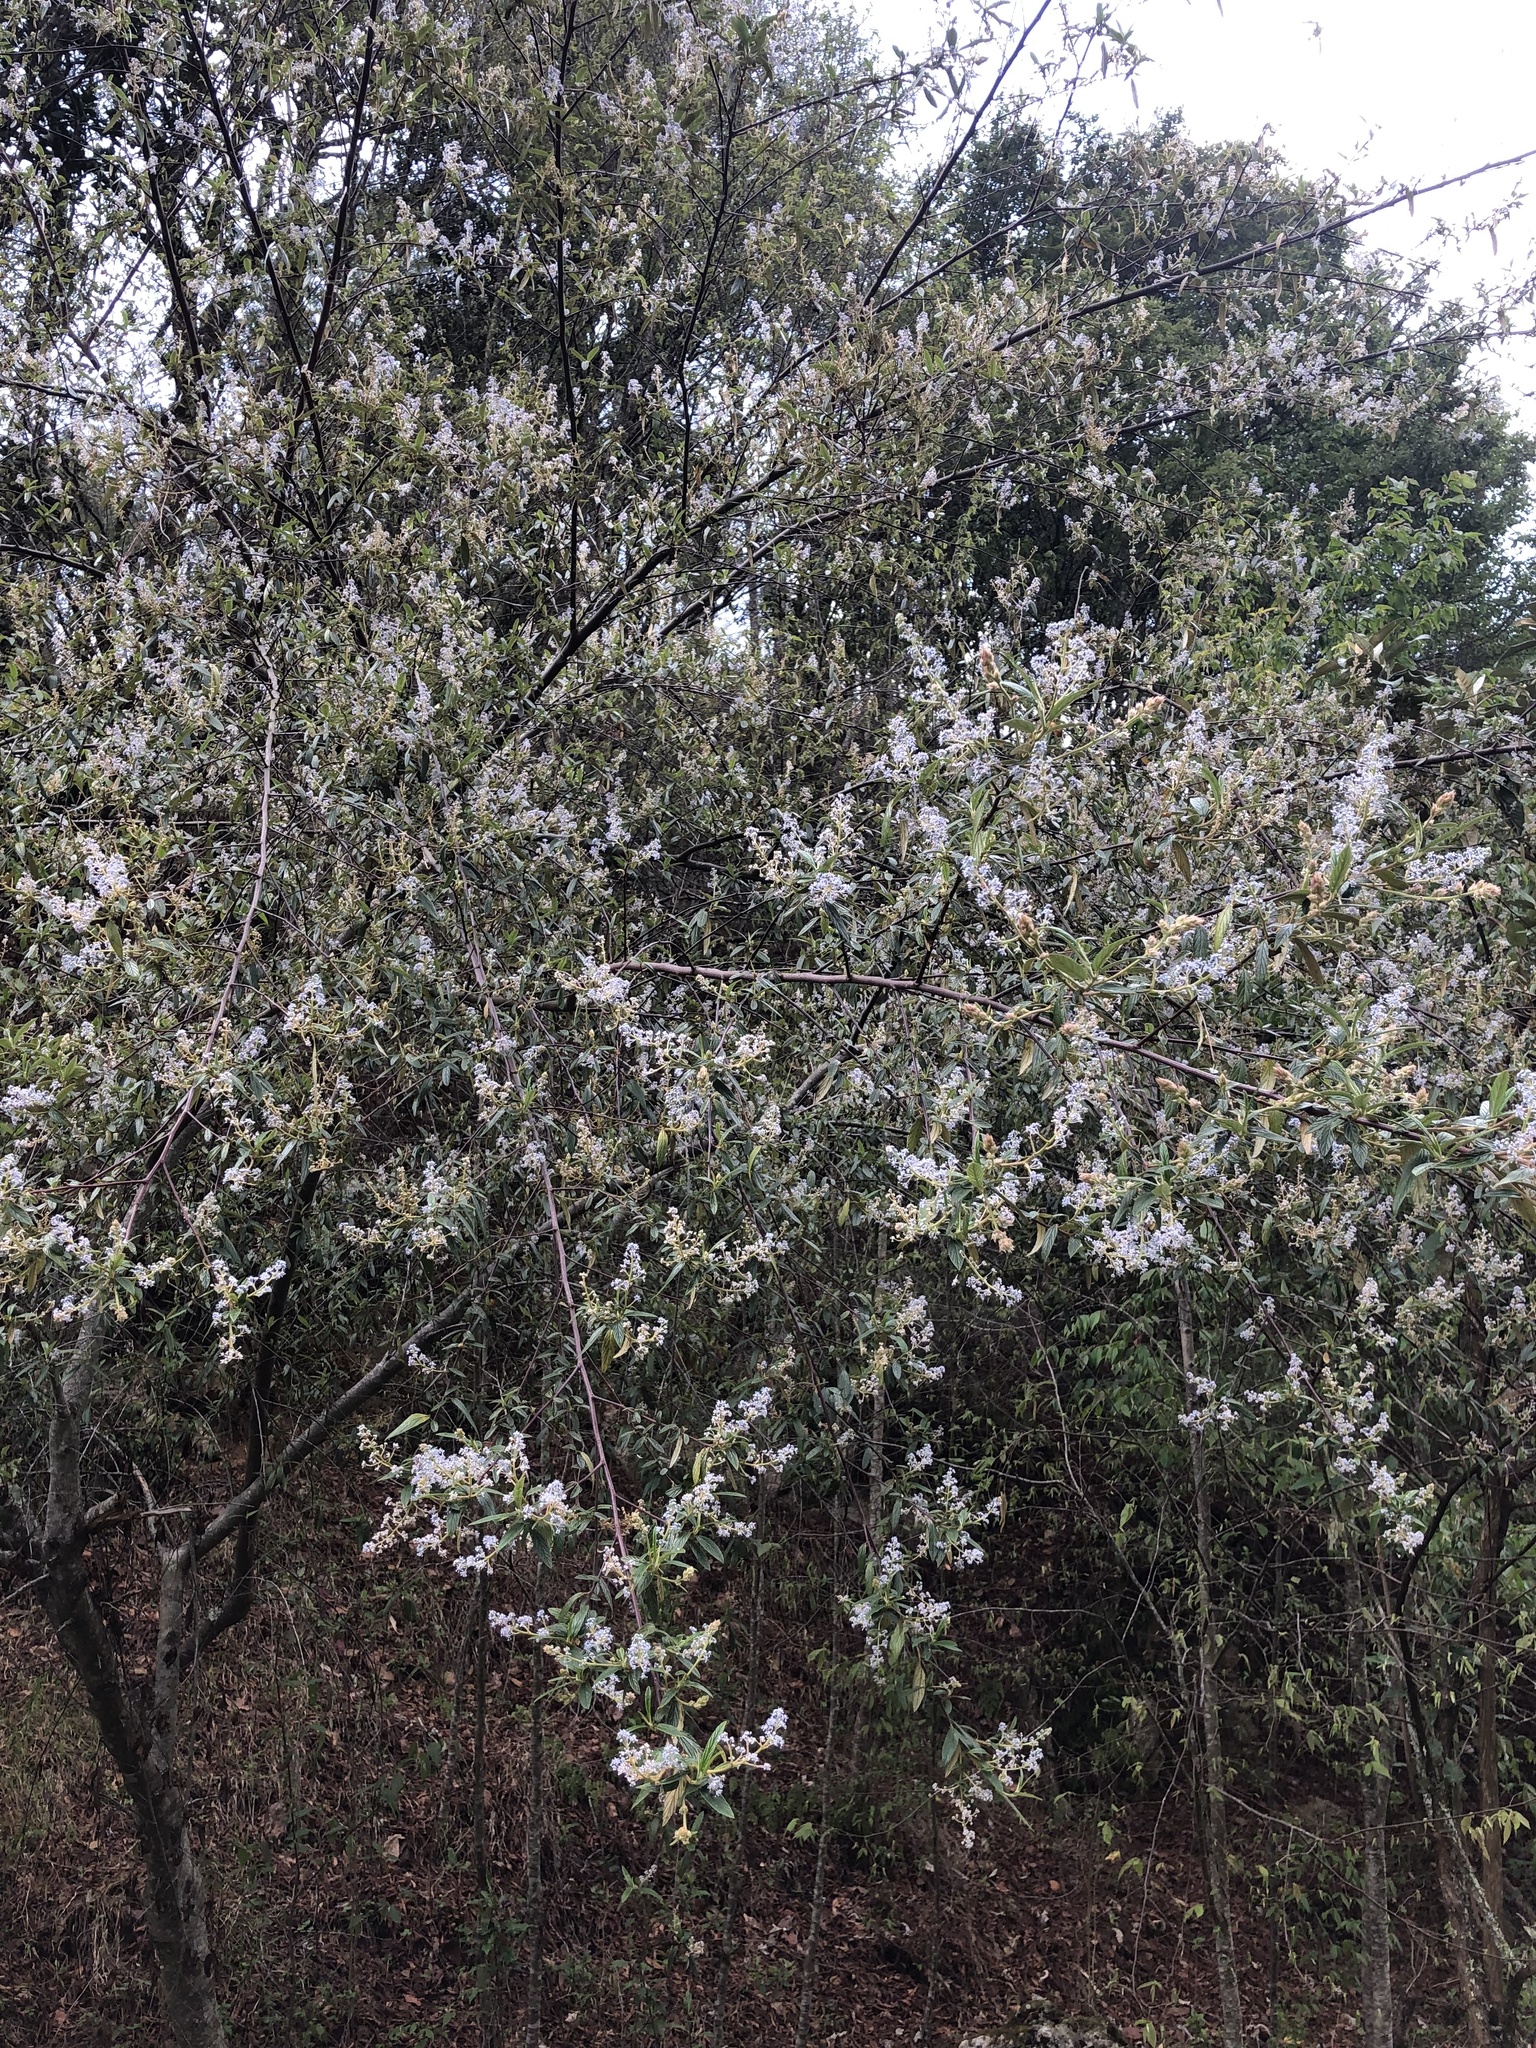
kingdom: Plantae
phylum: Tracheophyta
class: Magnoliopsida
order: Rosales
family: Rhamnaceae
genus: Ceanothus
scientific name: Ceanothus caeruleus
